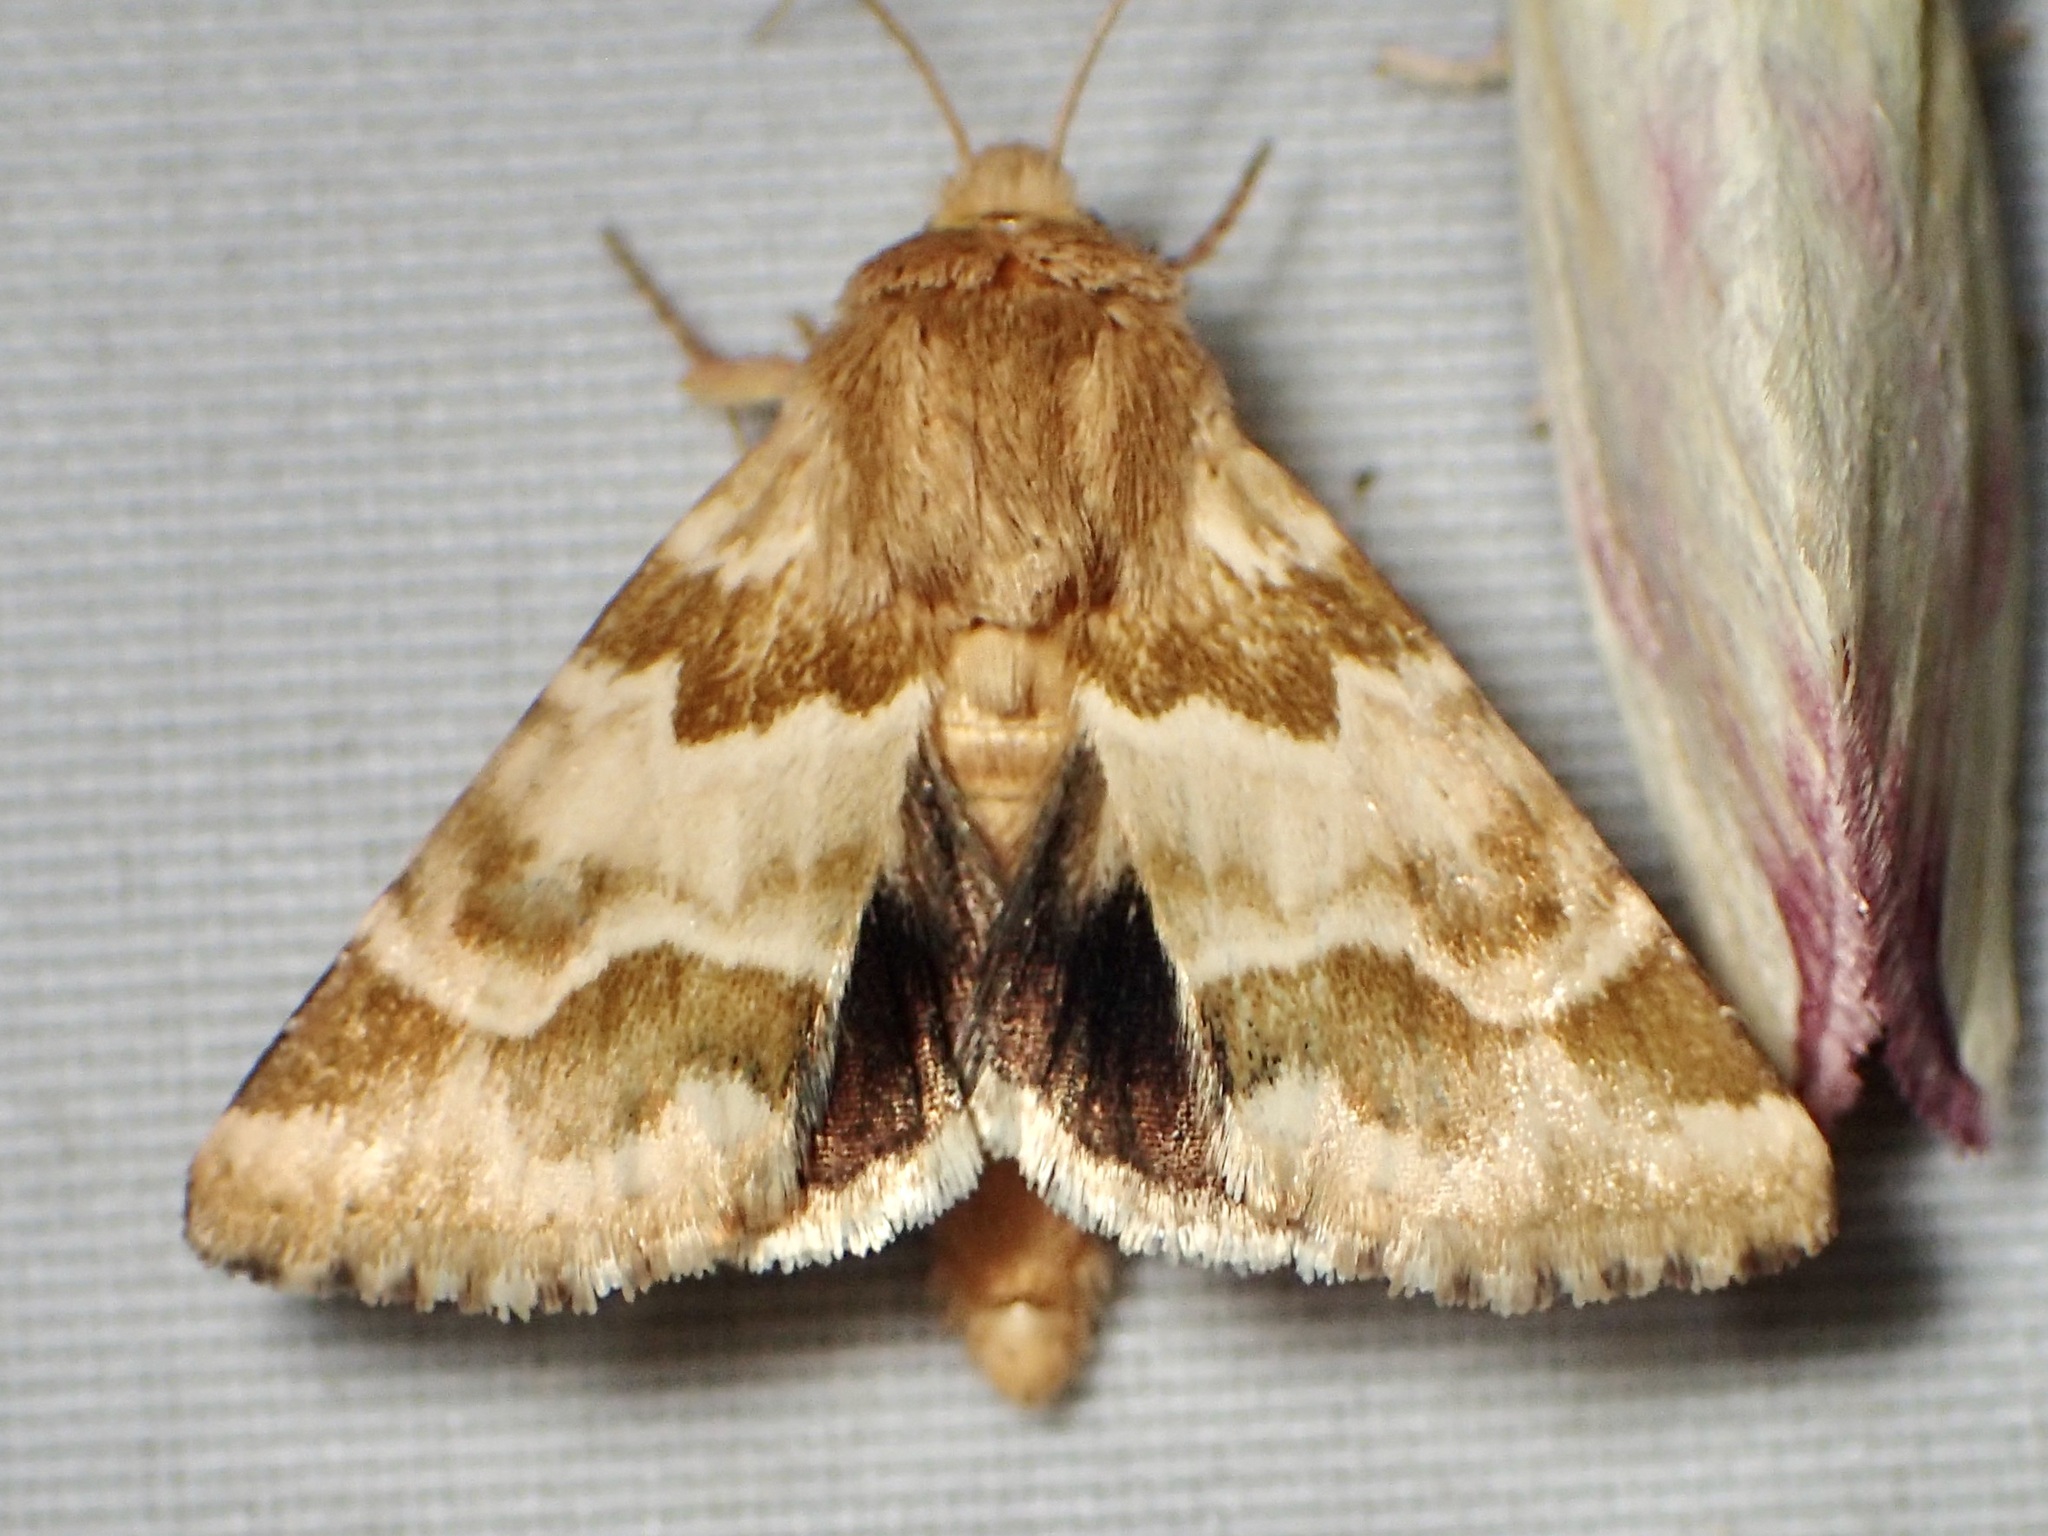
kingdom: Animalia
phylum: Arthropoda
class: Insecta
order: Lepidoptera
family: Noctuidae
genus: Schinia
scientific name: Schinia errans
